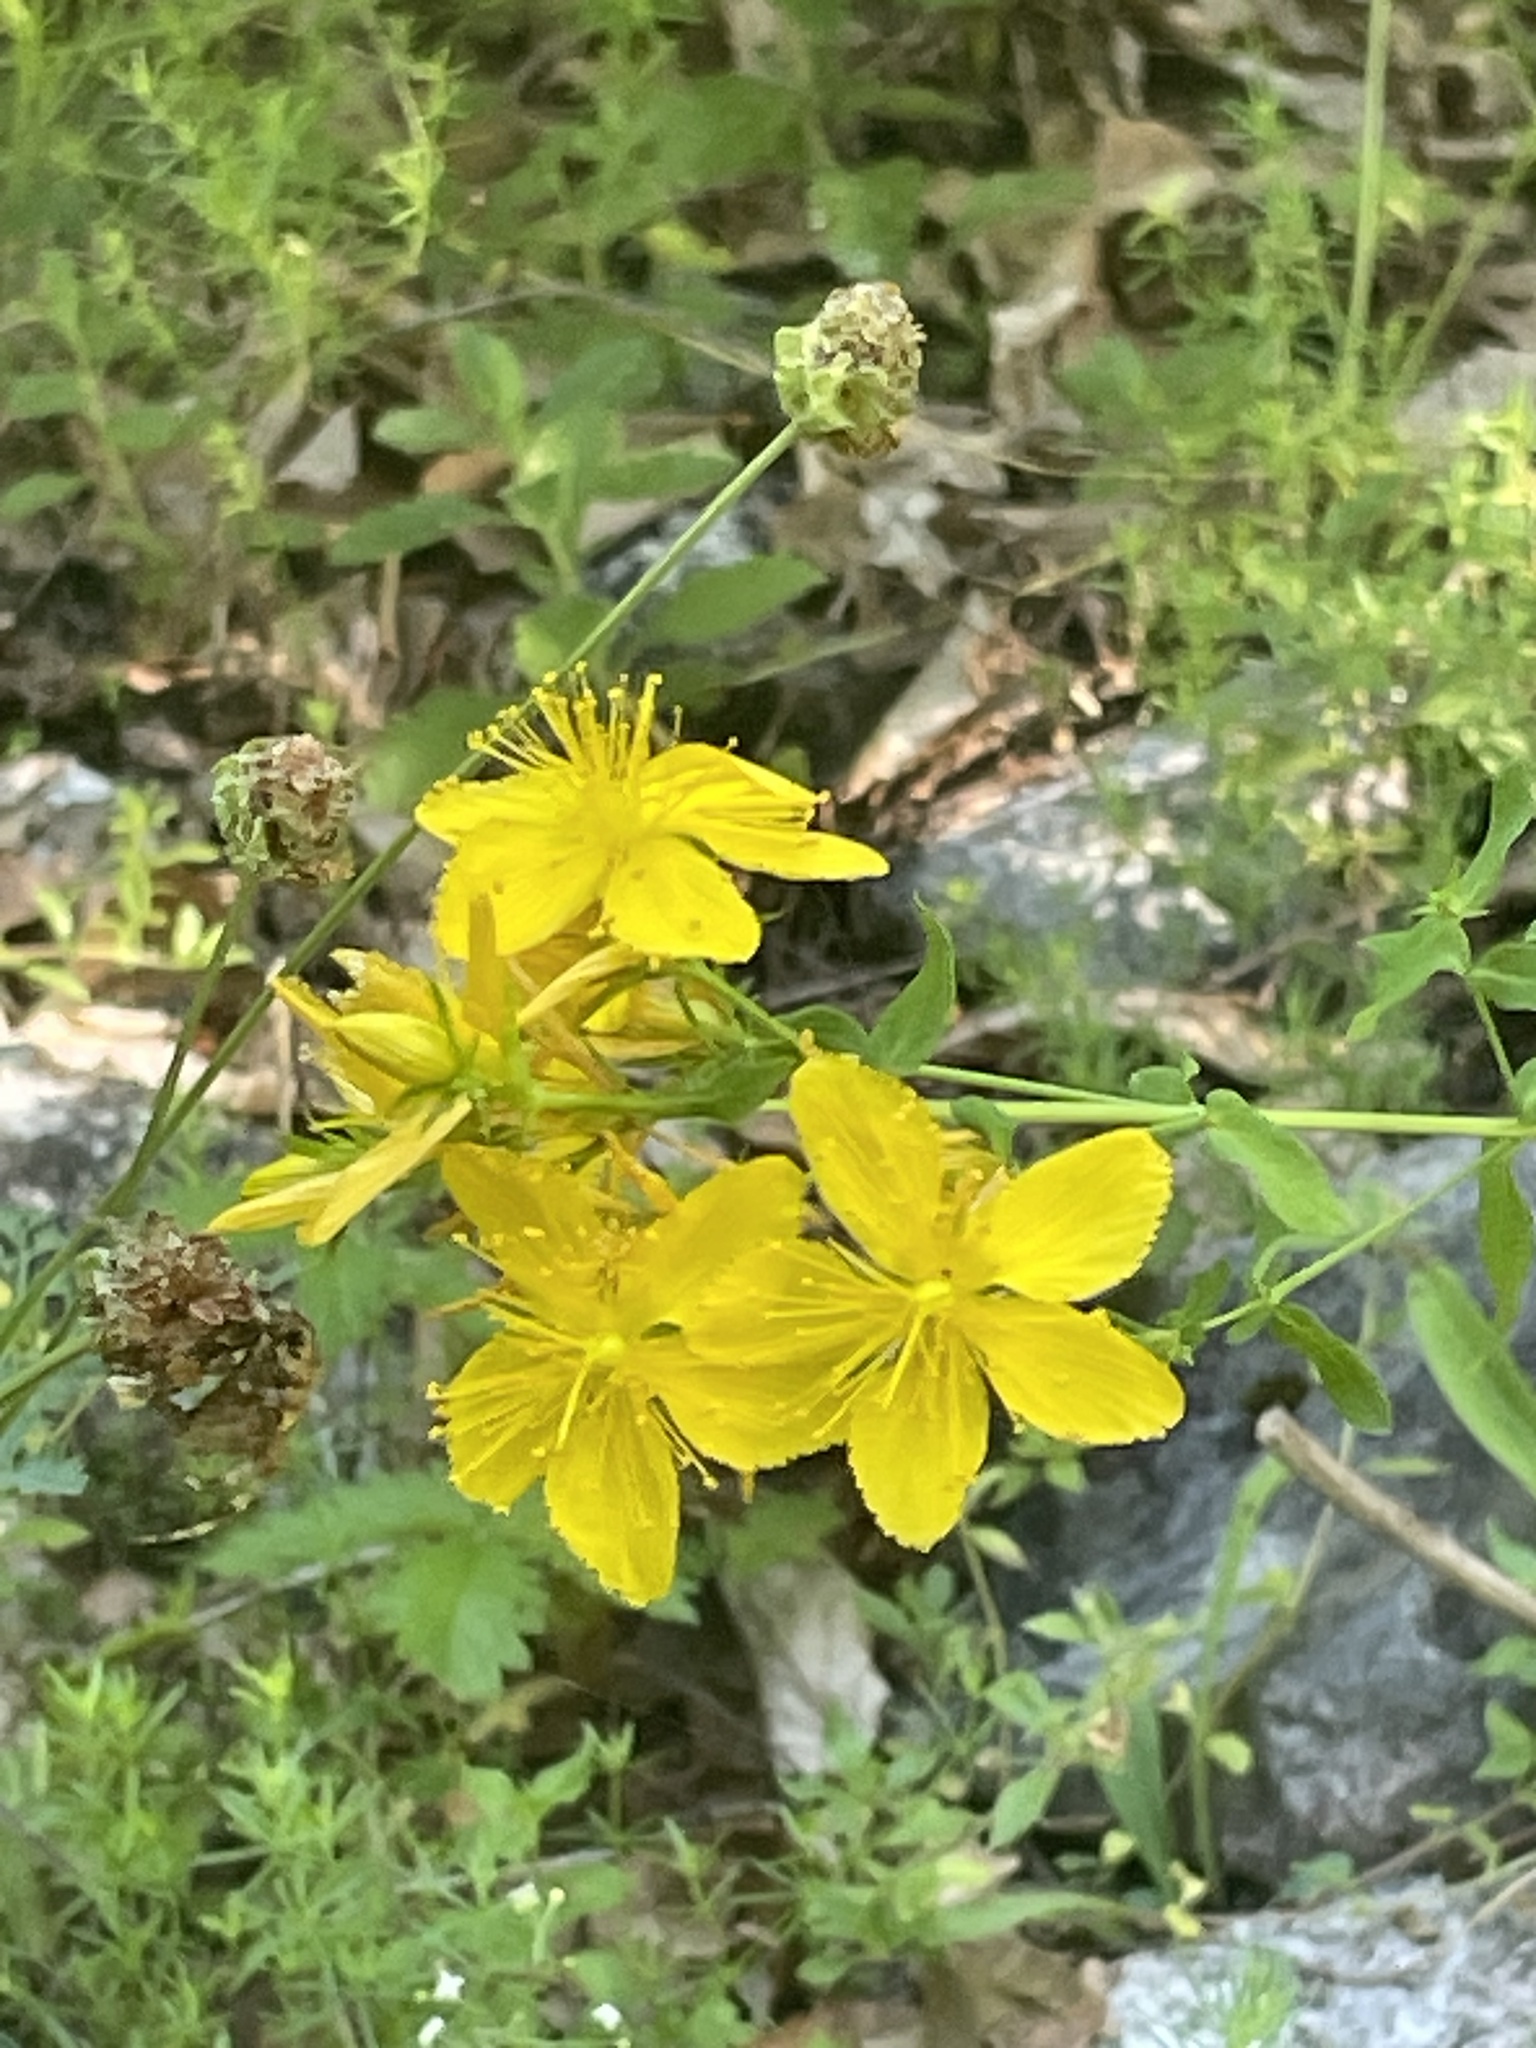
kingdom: Plantae
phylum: Tracheophyta
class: Magnoliopsida
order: Malpighiales
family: Hypericaceae
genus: Hypericum
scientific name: Hypericum perforatum
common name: Common st. johnswort
